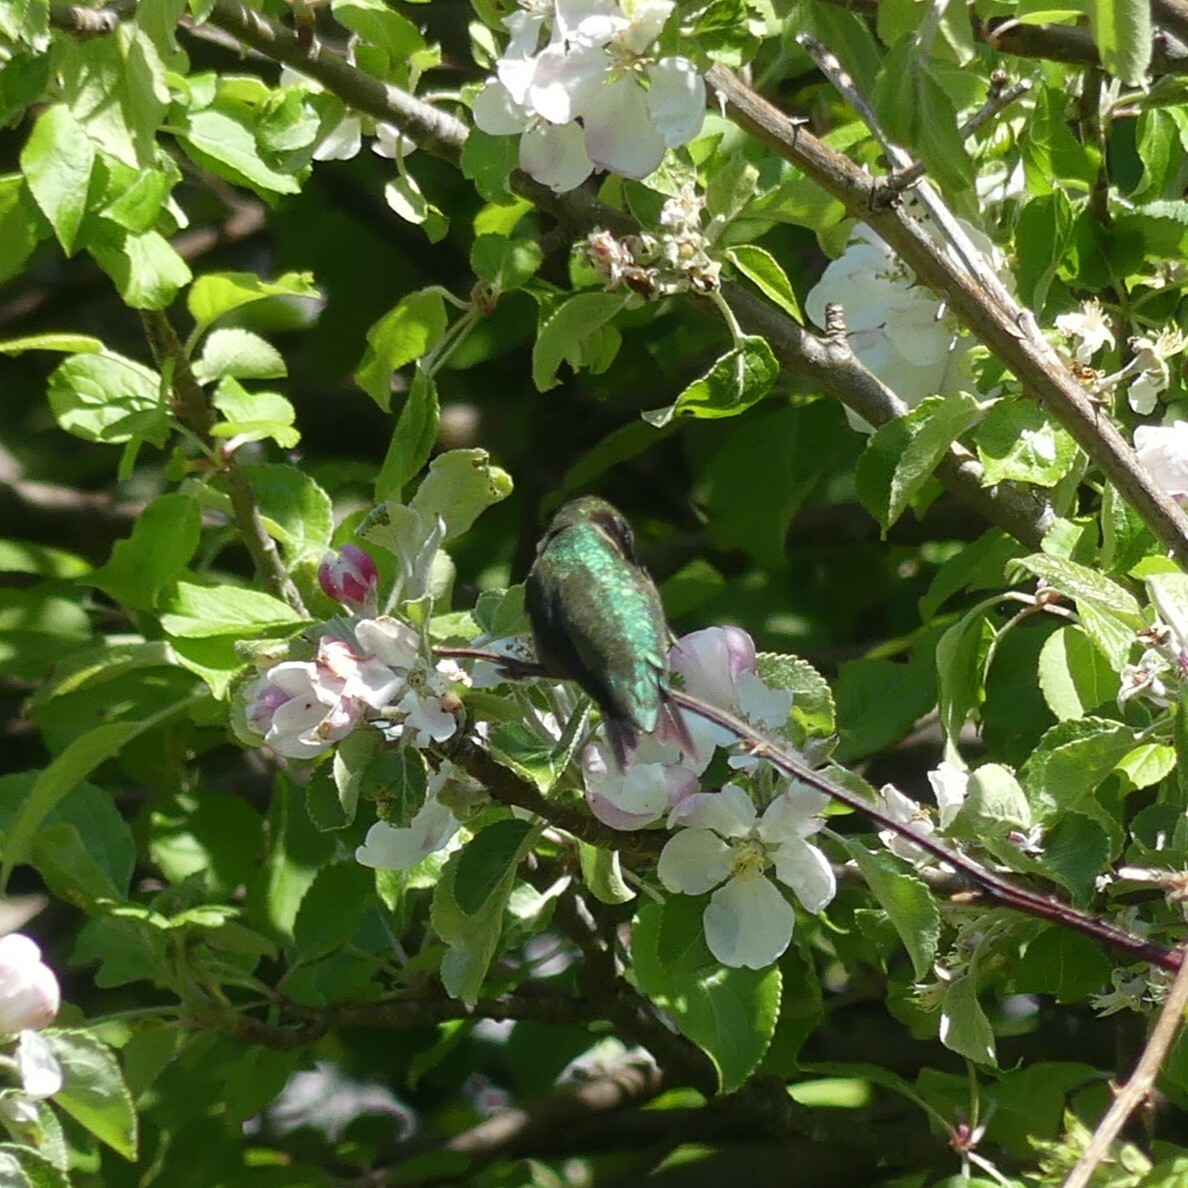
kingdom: Animalia
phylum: Chordata
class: Aves
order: Apodiformes
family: Trochilidae
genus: Archilochus
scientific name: Archilochus colubris
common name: Ruby-throated hummingbird
